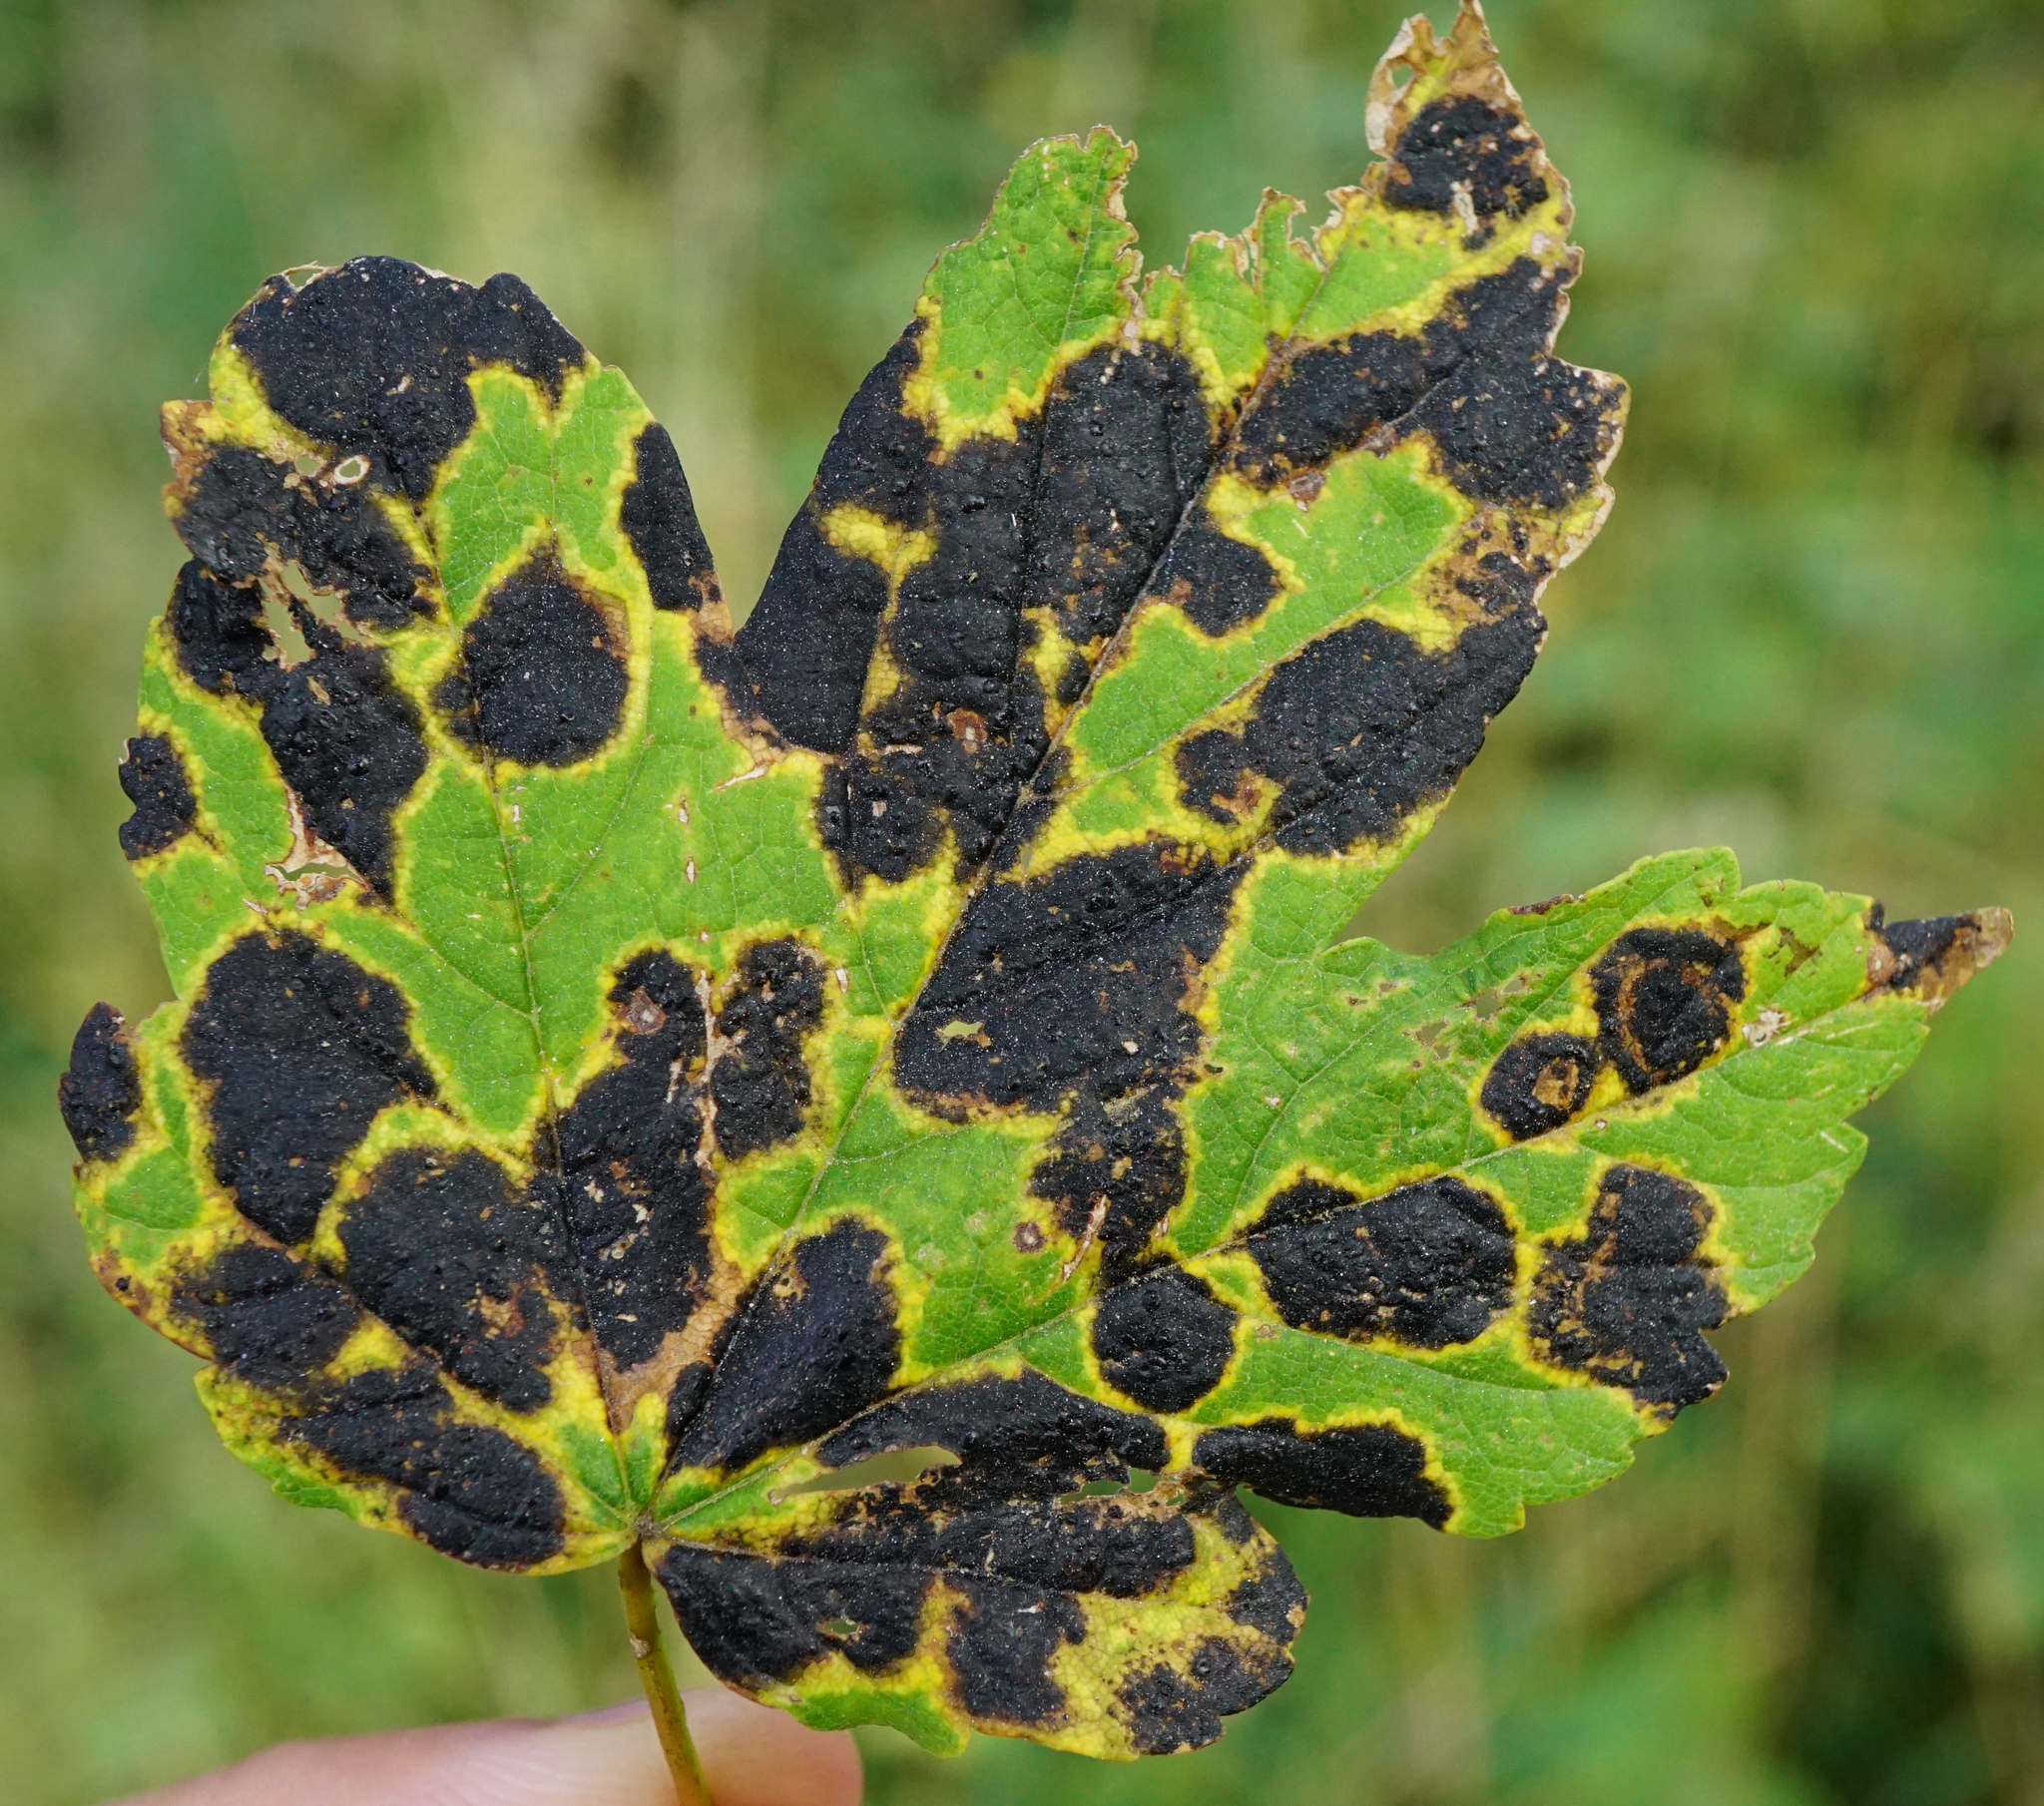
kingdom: Fungi
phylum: Ascomycota
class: Leotiomycetes
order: Rhytismatales
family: Rhytismataceae
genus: Rhytisma
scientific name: Rhytisma acerinum
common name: European tar spot
